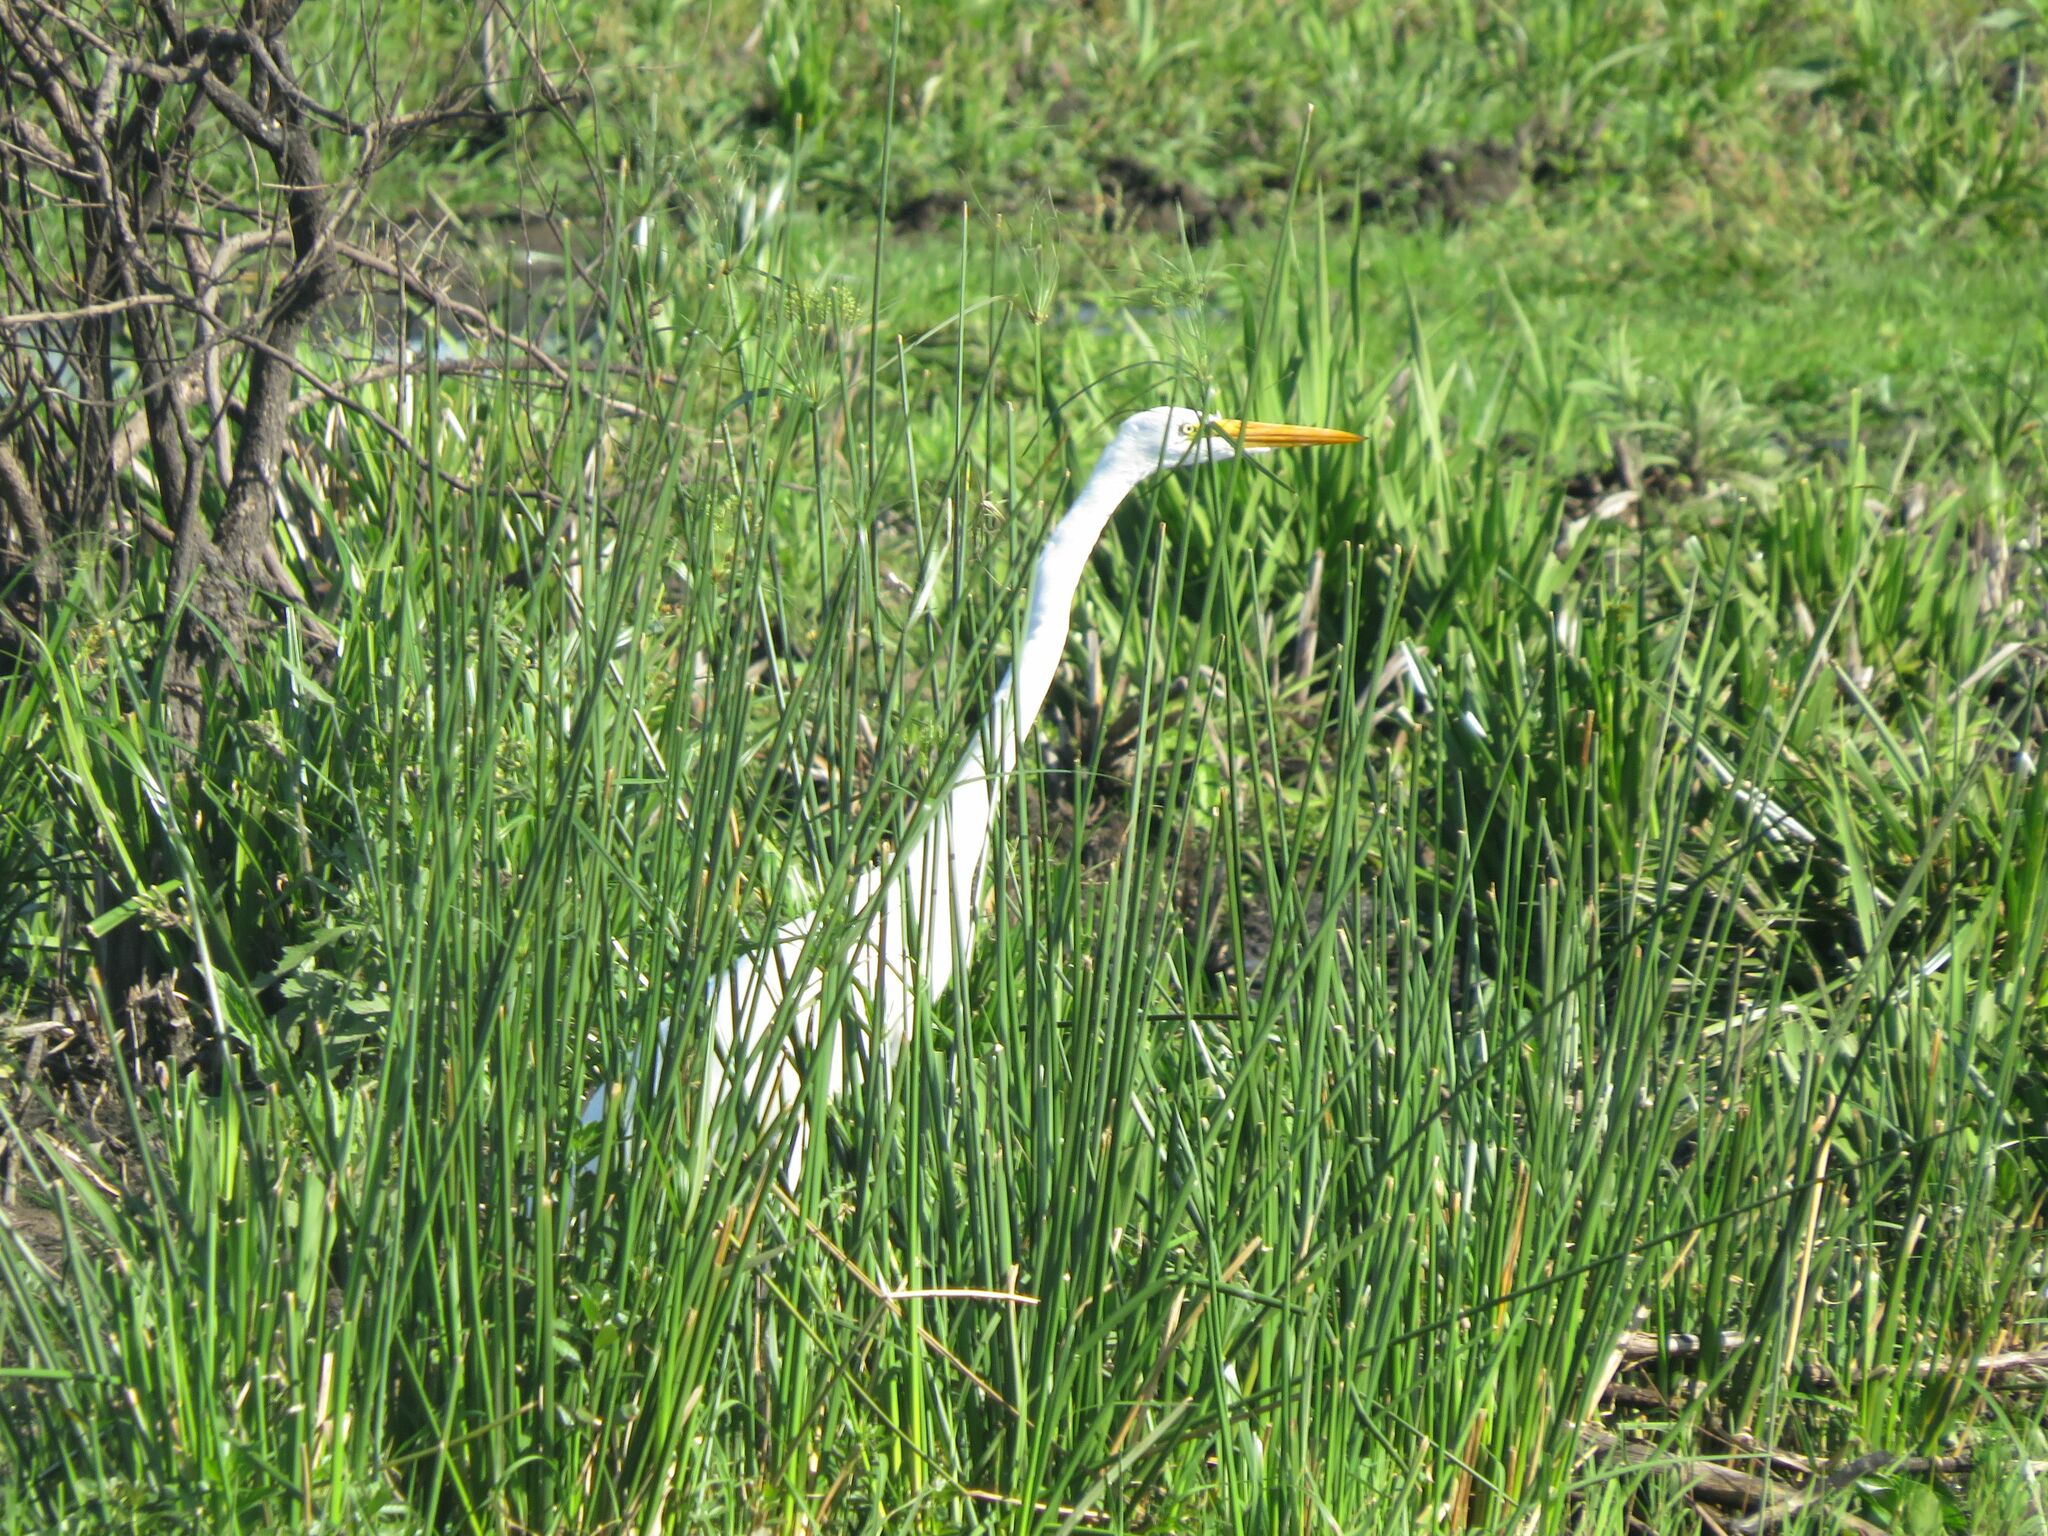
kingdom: Animalia
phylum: Chordata
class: Aves
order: Pelecaniformes
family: Ardeidae
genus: Ardea
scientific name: Ardea alba
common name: Great egret
